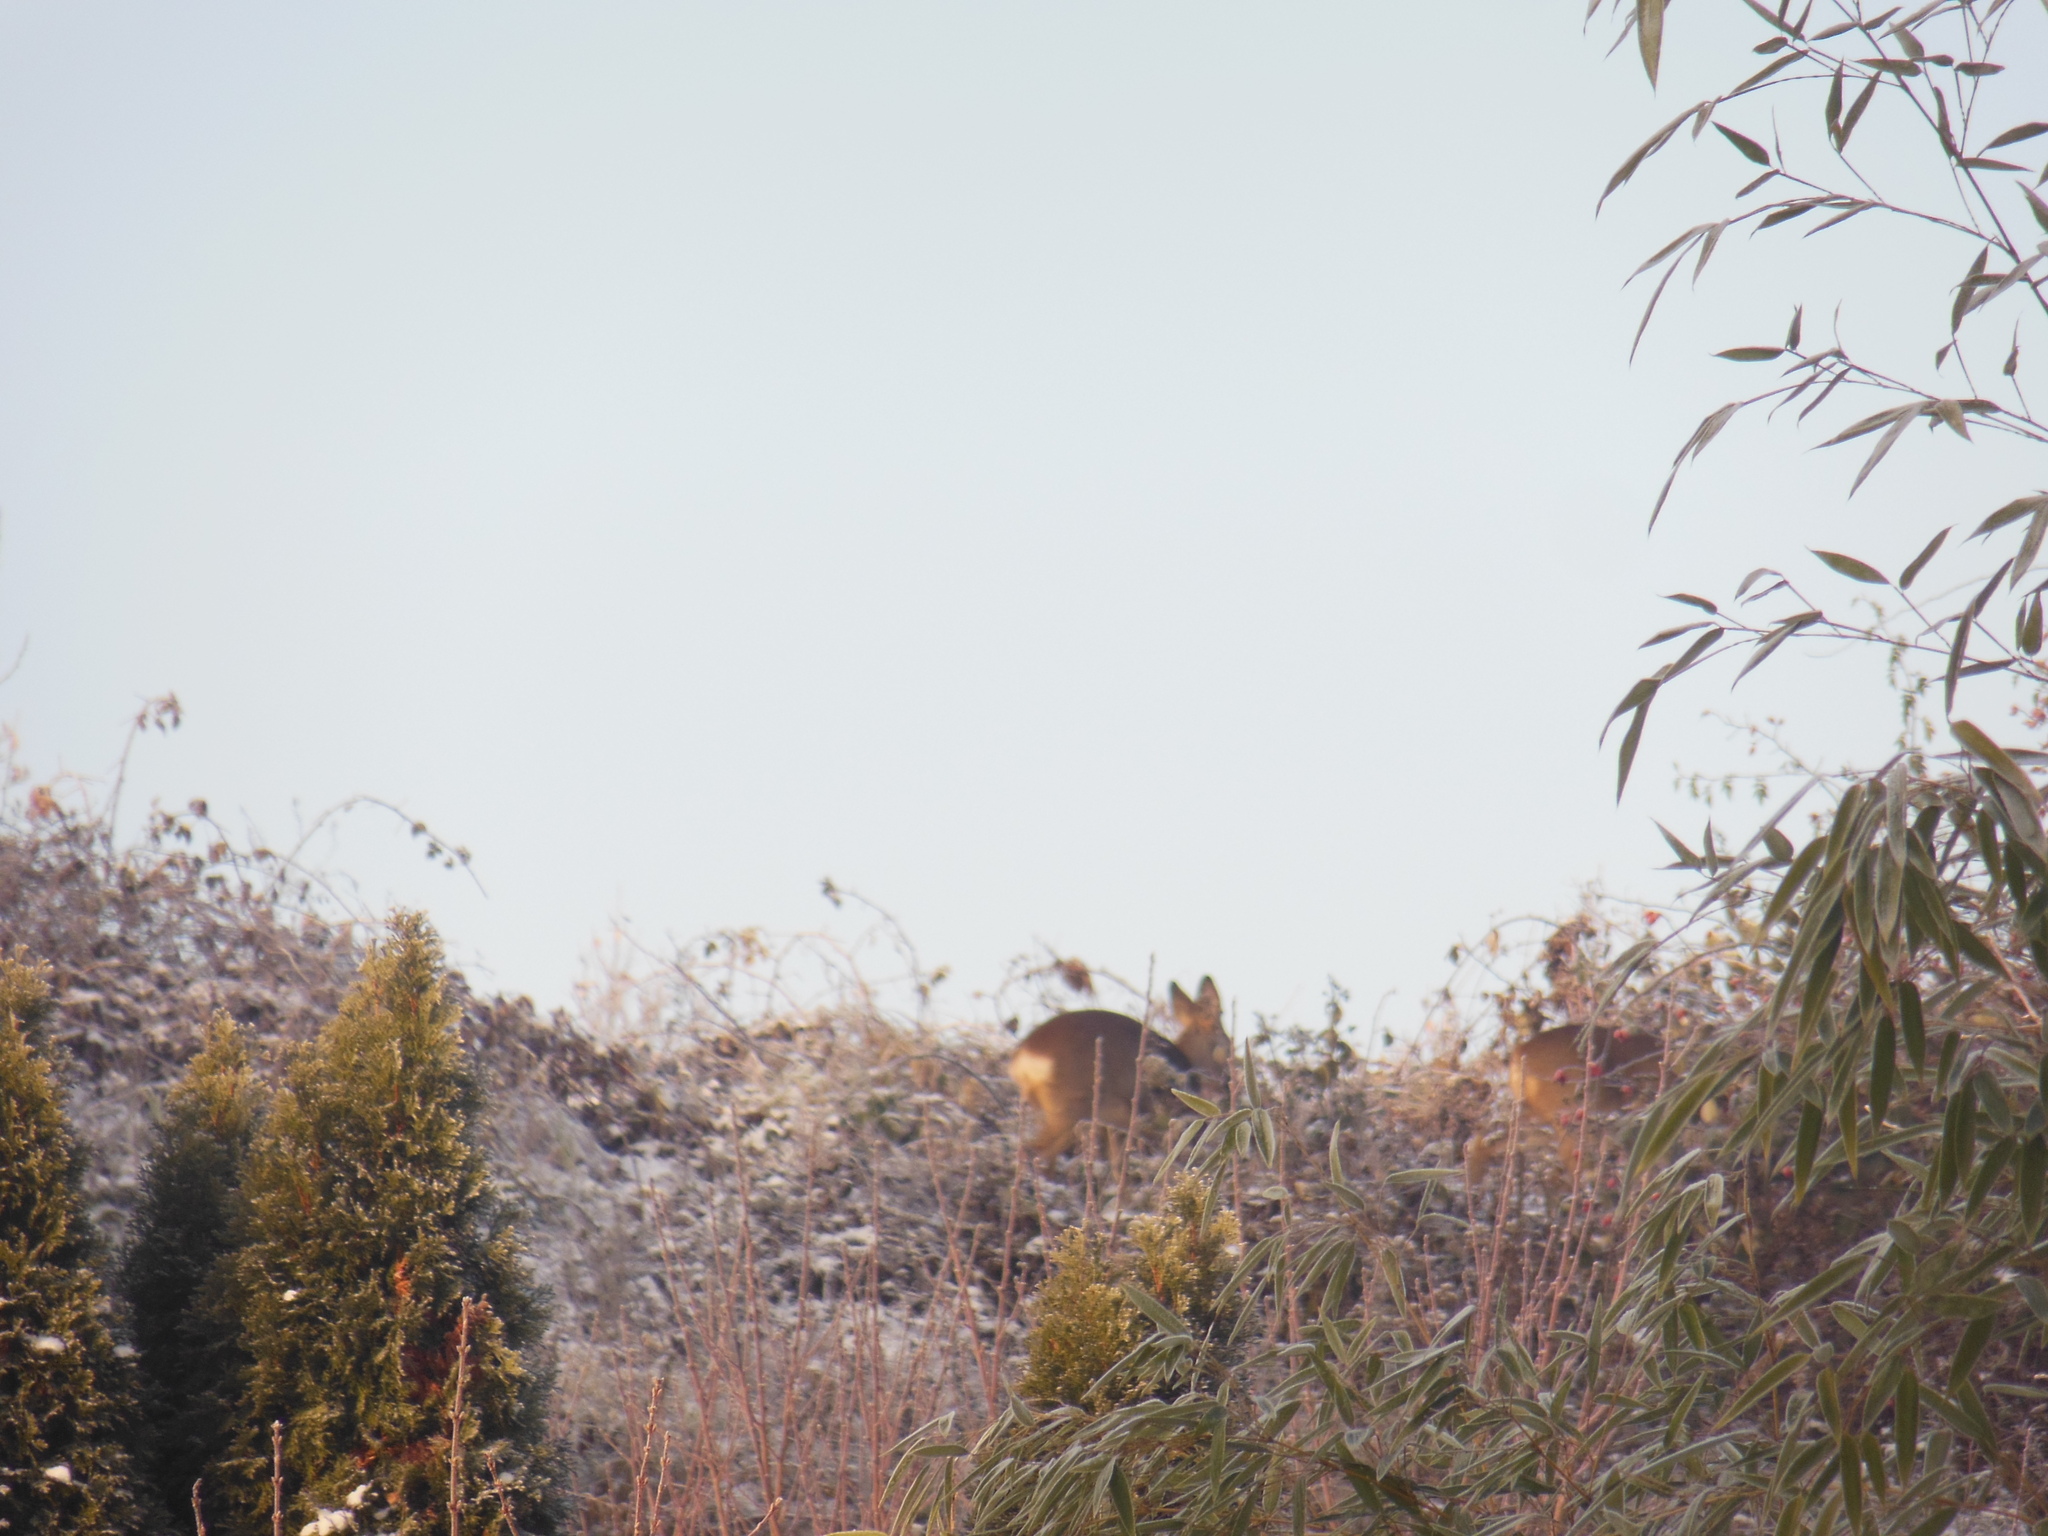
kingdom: Animalia
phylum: Chordata
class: Mammalia
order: Artiodactyla
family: Cervidae
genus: Capreolus
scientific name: Capreolus capreolus
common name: Western roe deer
